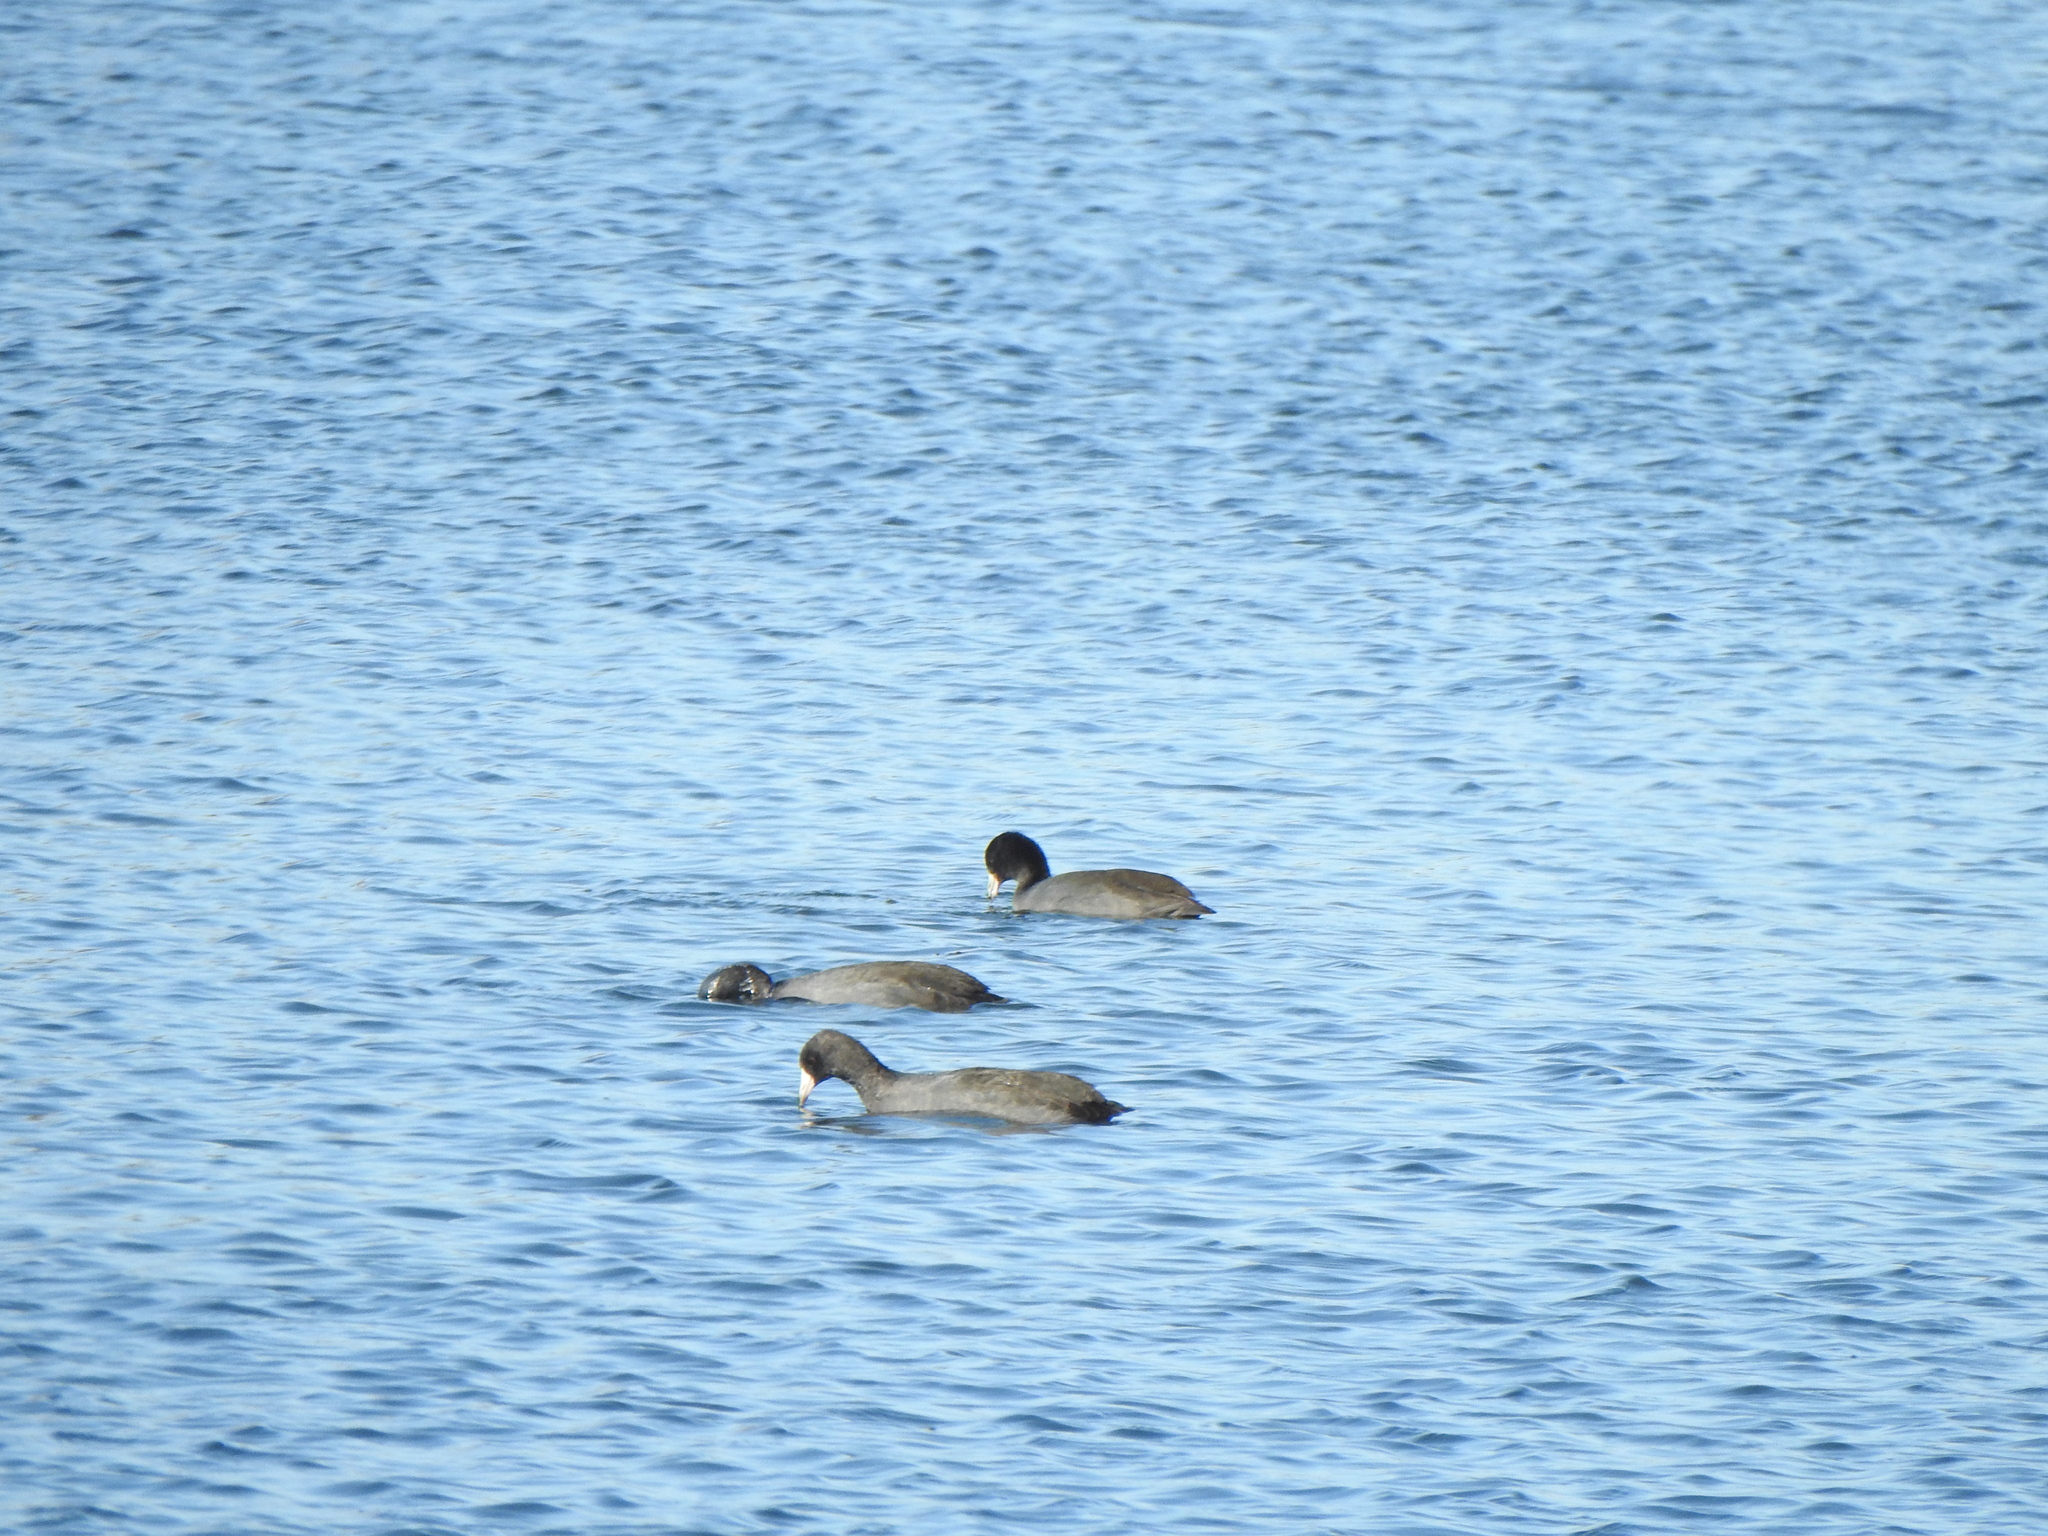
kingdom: Animalia
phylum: Chordata
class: Aves
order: Gruiformes
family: Rallidae
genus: Fulica
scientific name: Fulica americana
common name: American coot
